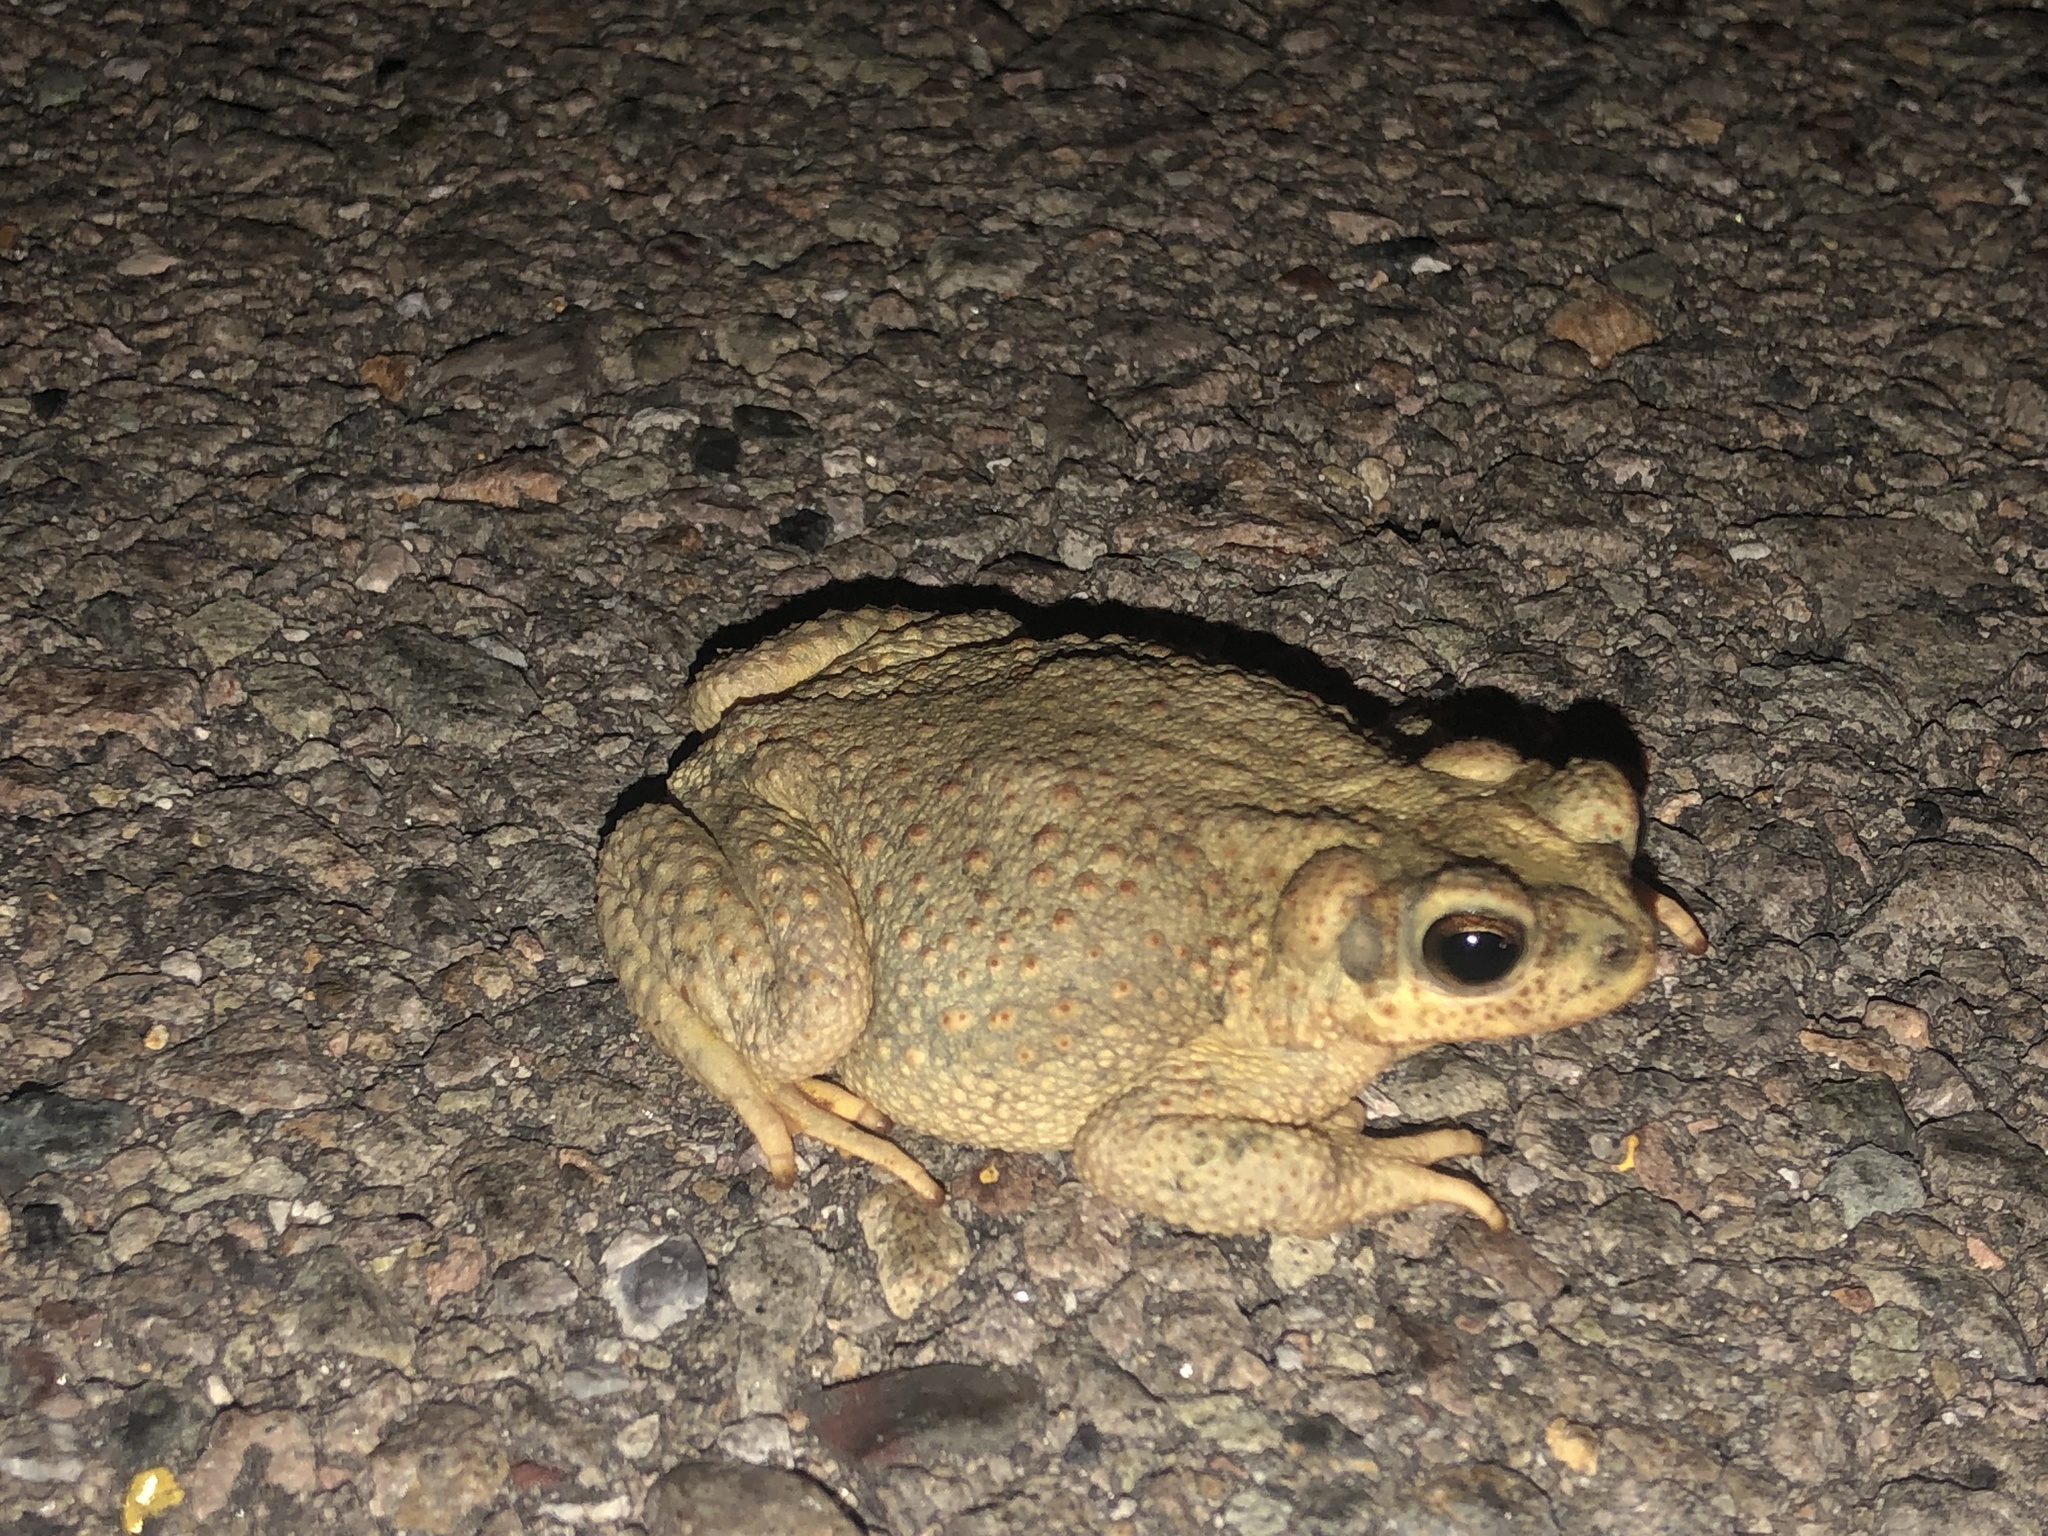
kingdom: Animalia
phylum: Chordata
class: Amphibia
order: Anura
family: Bufonidae
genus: Anaxyrus
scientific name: Anaxyrus punctatus
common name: Red-spotted toad
